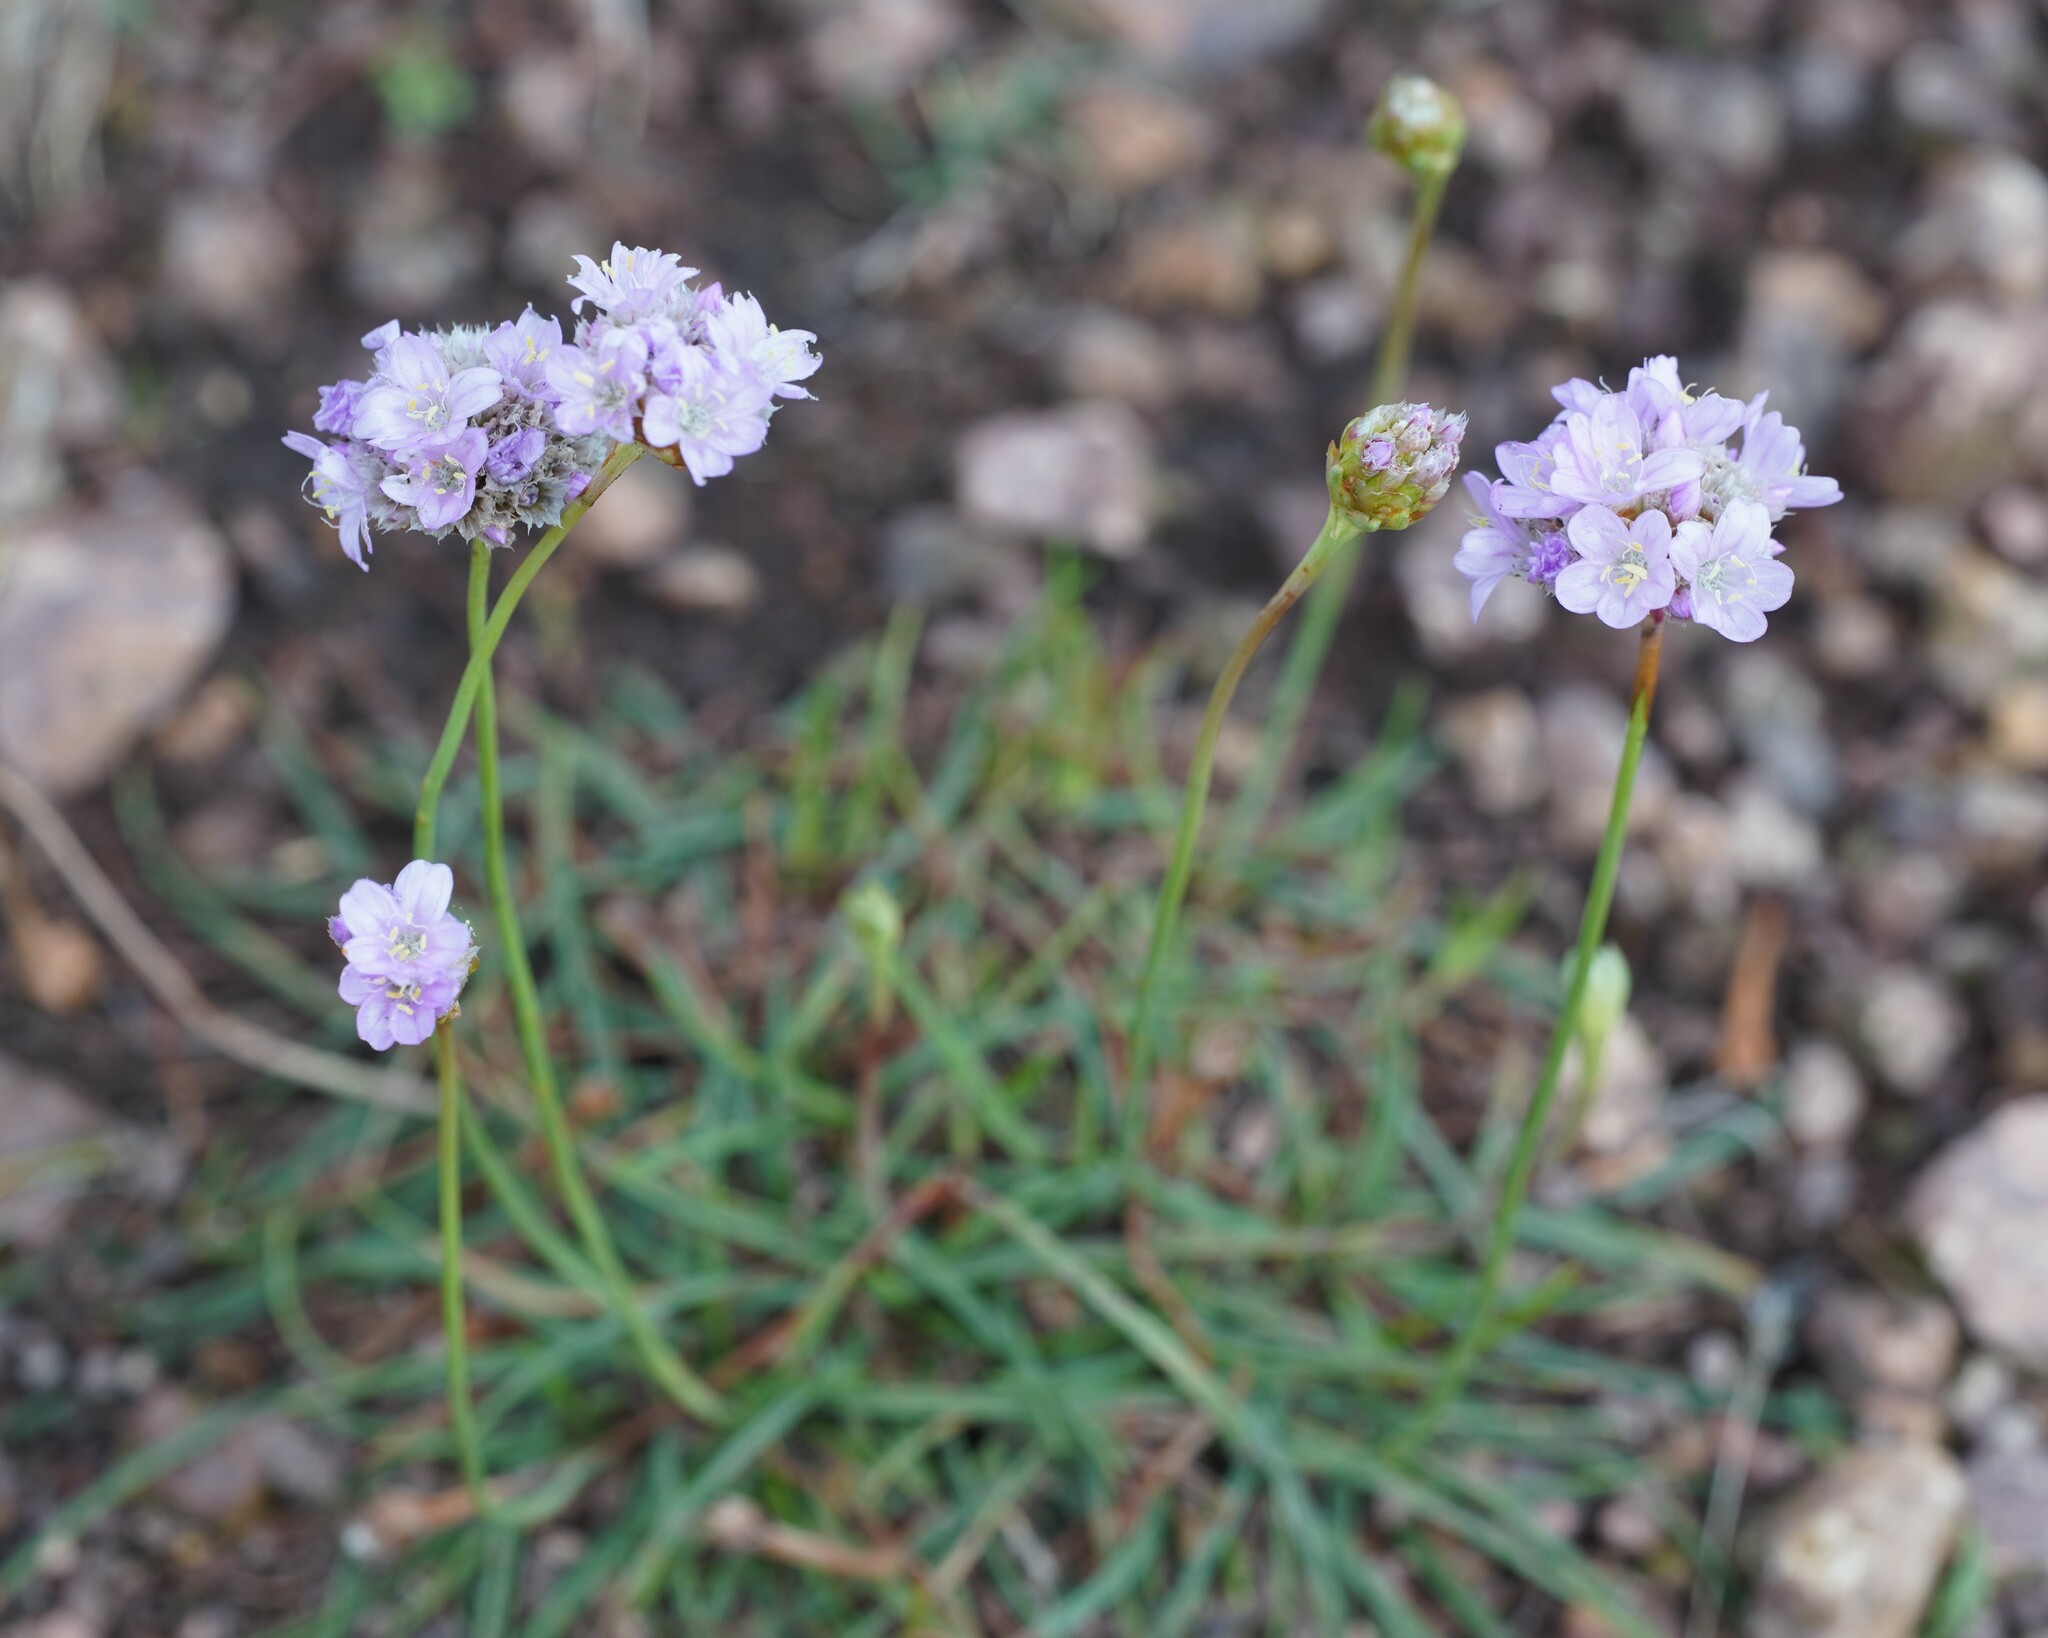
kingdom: Plantae
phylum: Tracheophyta
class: Magnoliopsida
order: Caryophyllales
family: Plumbaginaceae
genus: Armeria
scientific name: Armeria maritima
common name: Thrift
